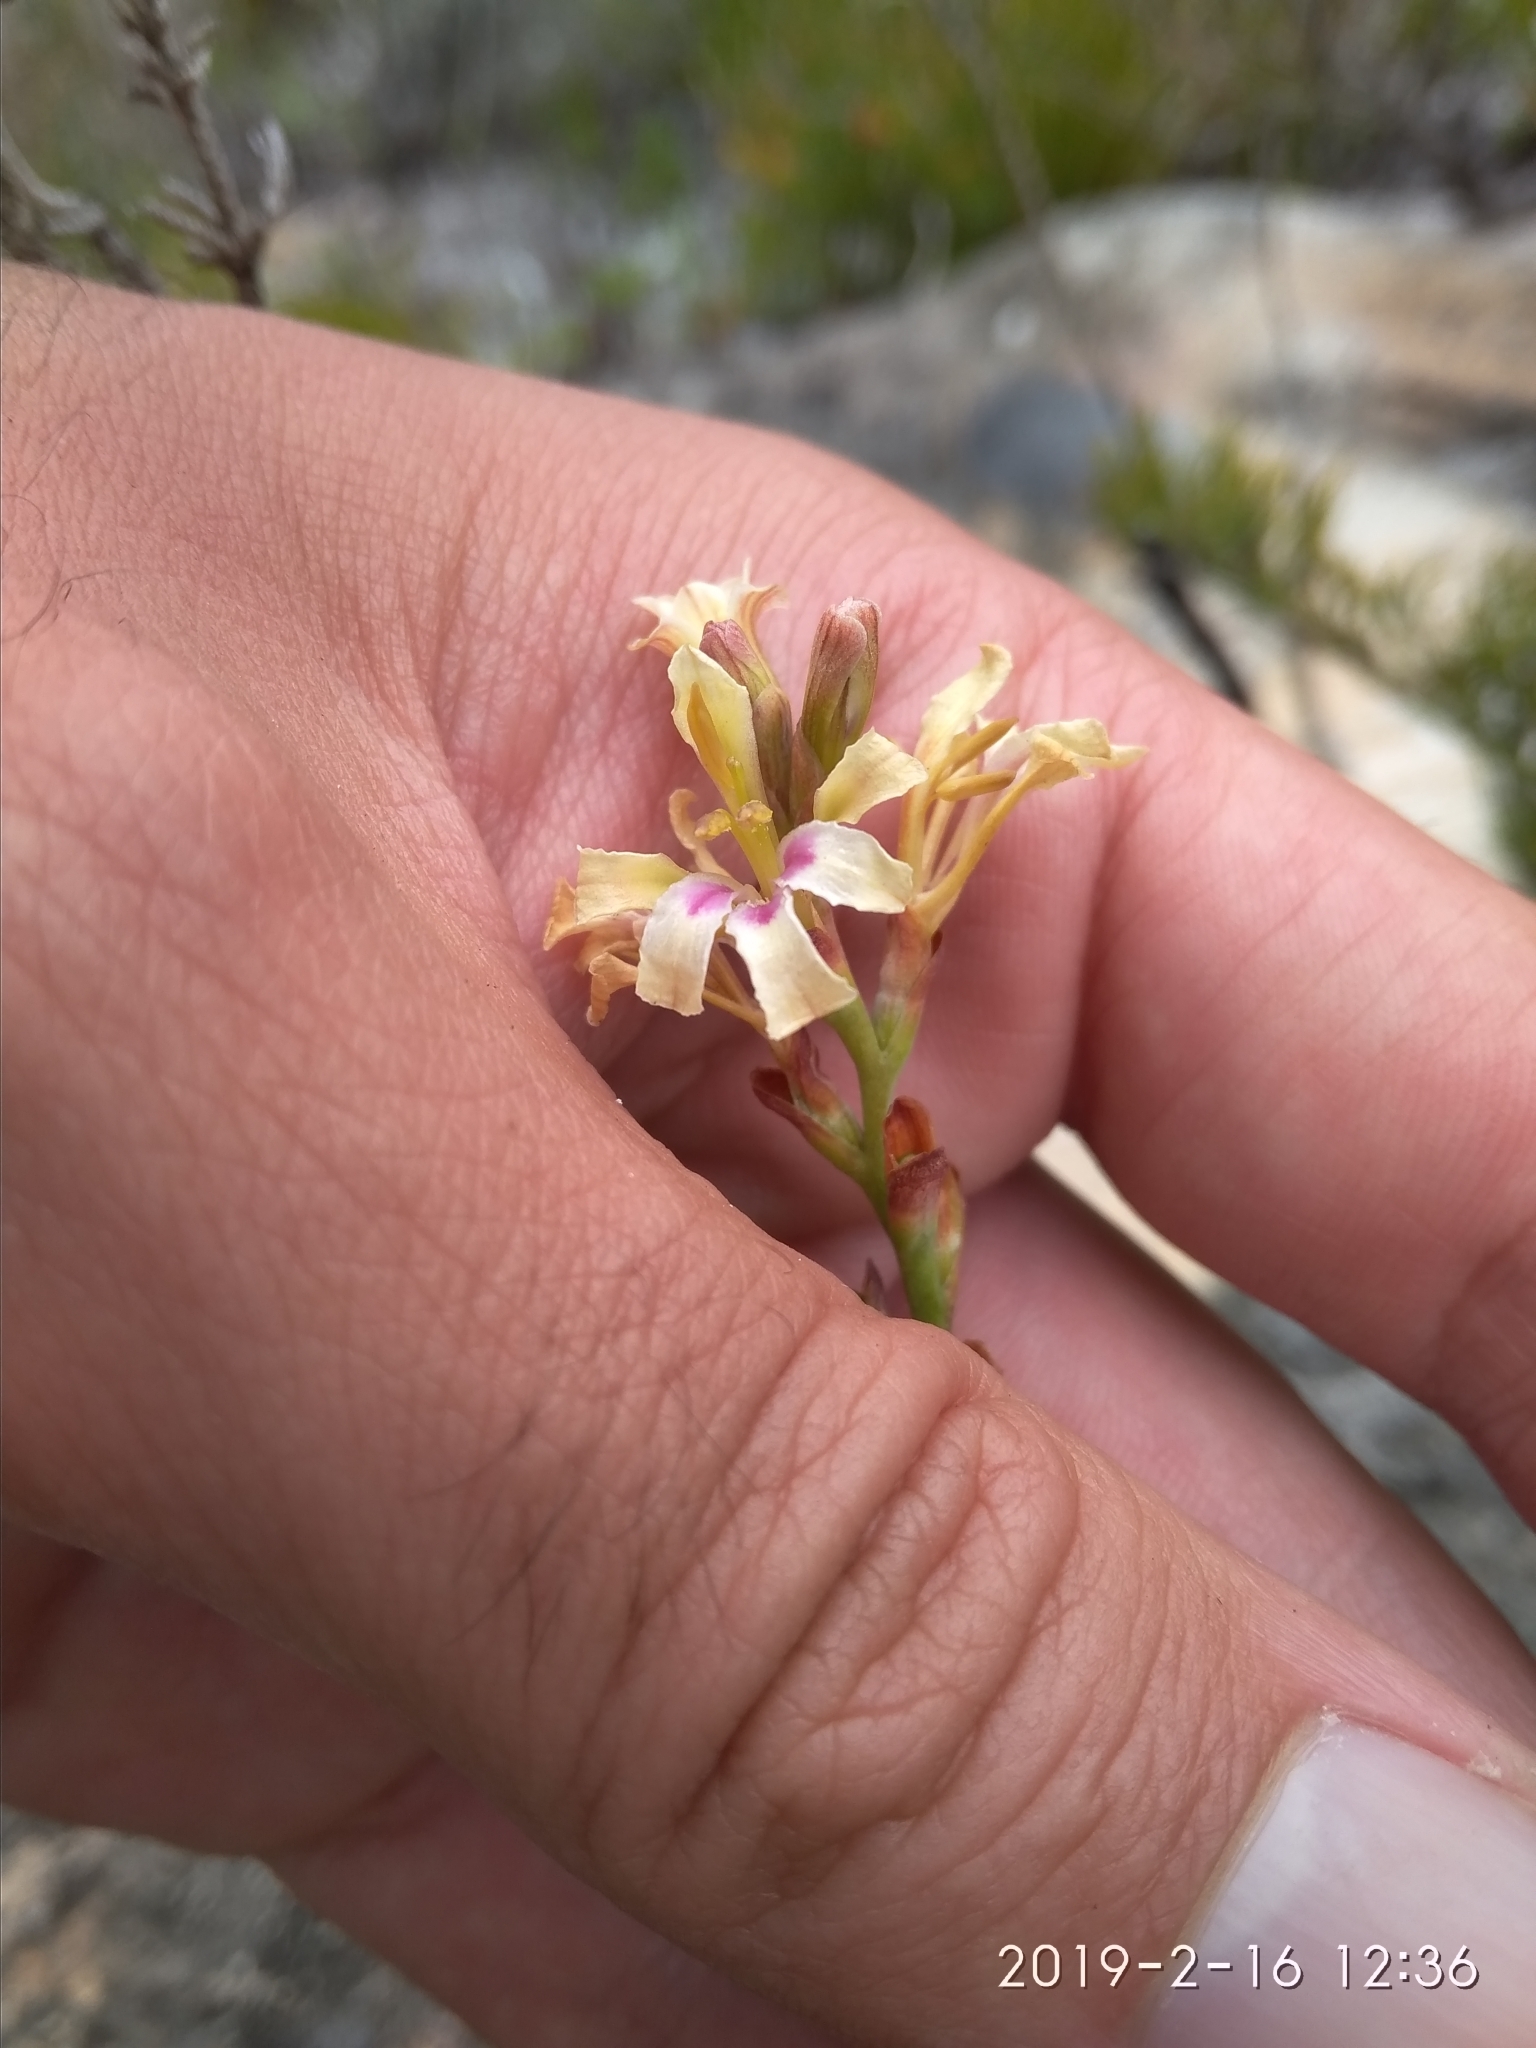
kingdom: Plantae
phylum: Tracheophyta
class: Liliopsida
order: Asparagales
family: Iridaceae
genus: Tritoniopsis
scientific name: Tritoniopsis unguicularis
